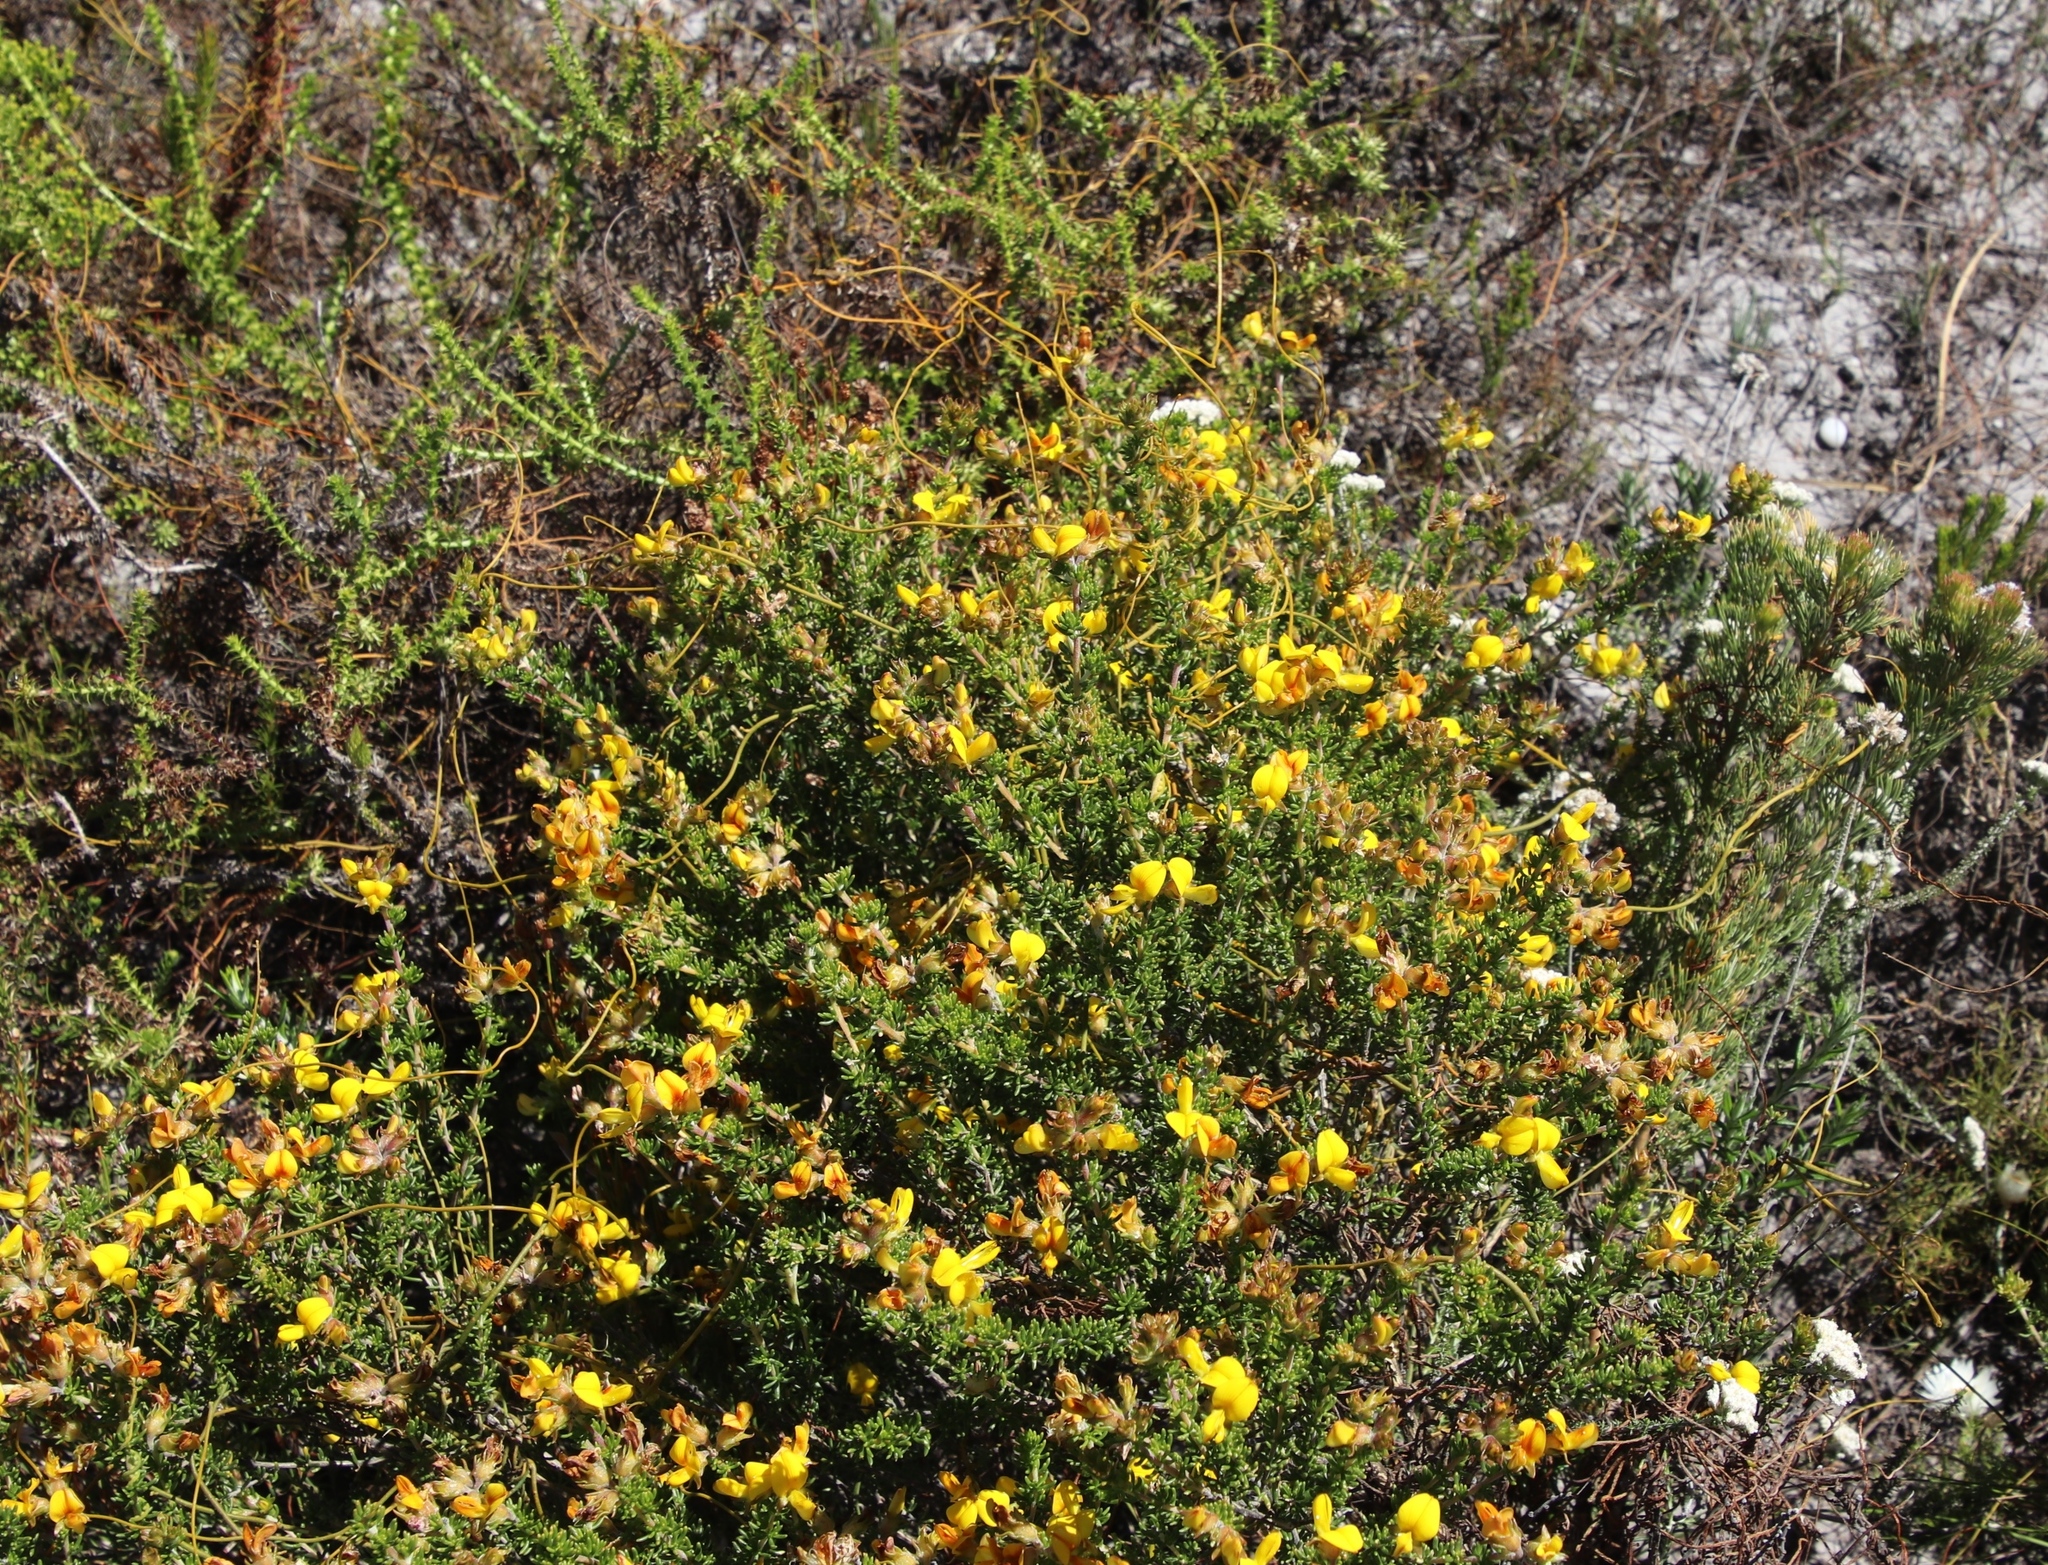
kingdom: Plantae
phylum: Tracheophyta
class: Magnoliopsida
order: Fabales
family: Fabaceae
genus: Aspalathus
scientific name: Aspalathus carnosa
